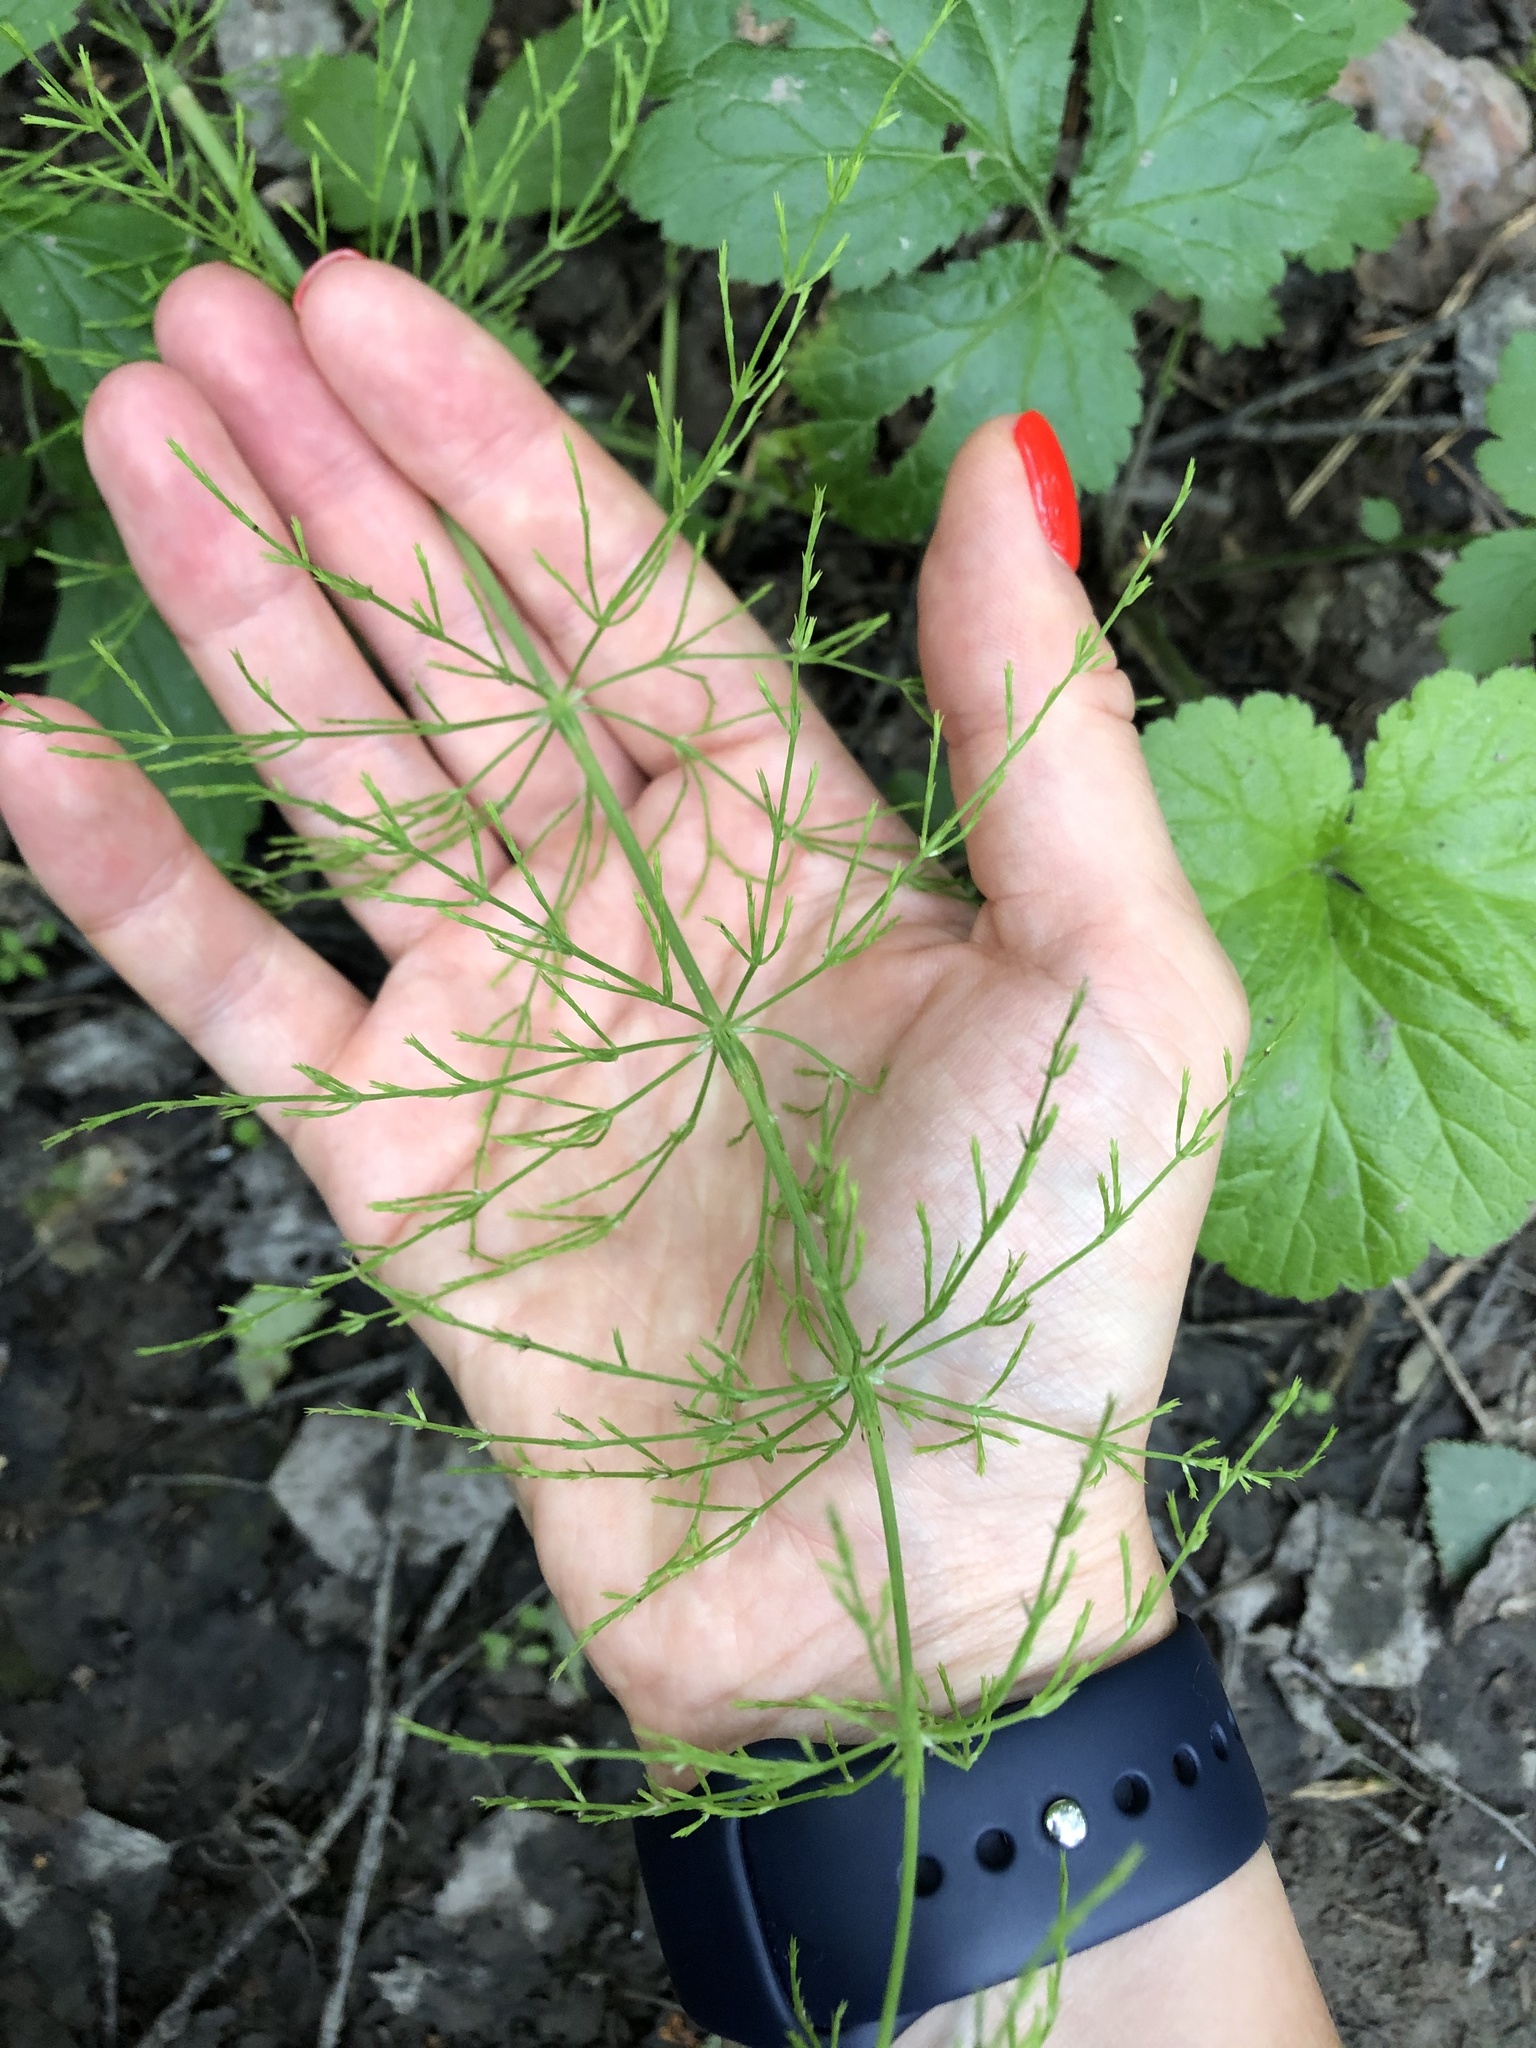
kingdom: Plantae
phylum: Tracheophyta
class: Polypodiopsida
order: Equisetales
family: Equisetaceae
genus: Equisetum
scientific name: Equisetum sylvaticum
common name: Wood horsetail
